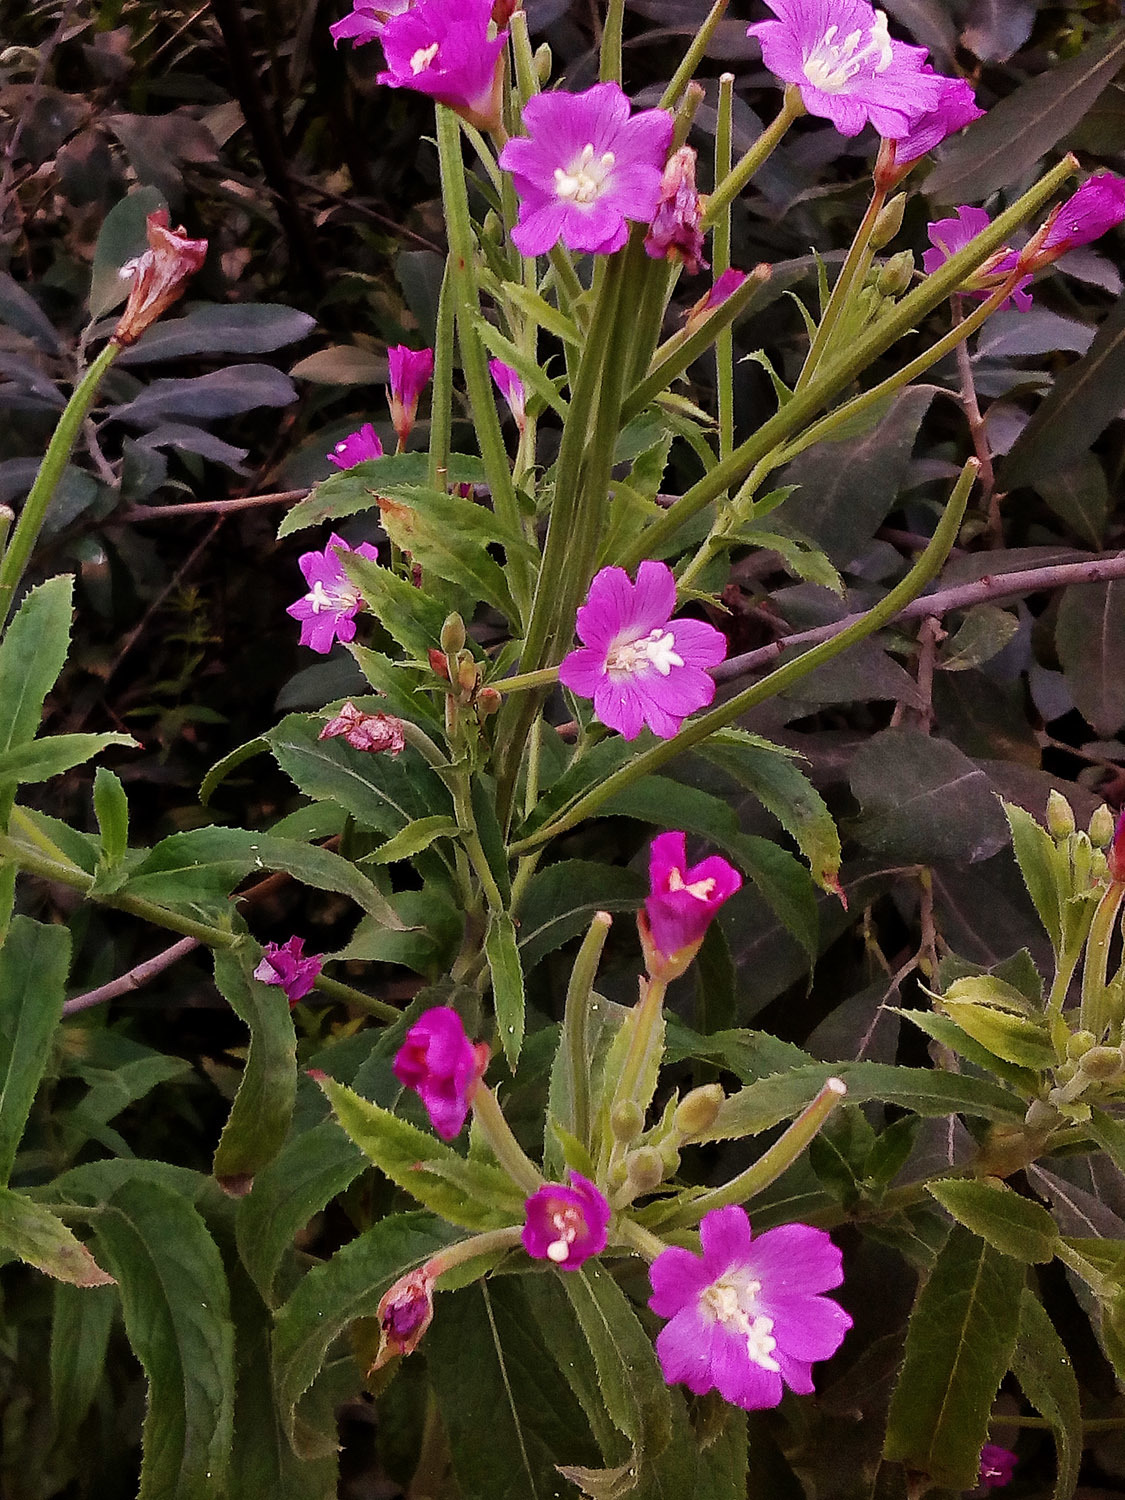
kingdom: Plantae
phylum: Tracheophyta
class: Magnoliopsida
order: Myrtales
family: Onagraceae
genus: Epilobium
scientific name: Epilobium hirsutum
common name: Great willowherb
